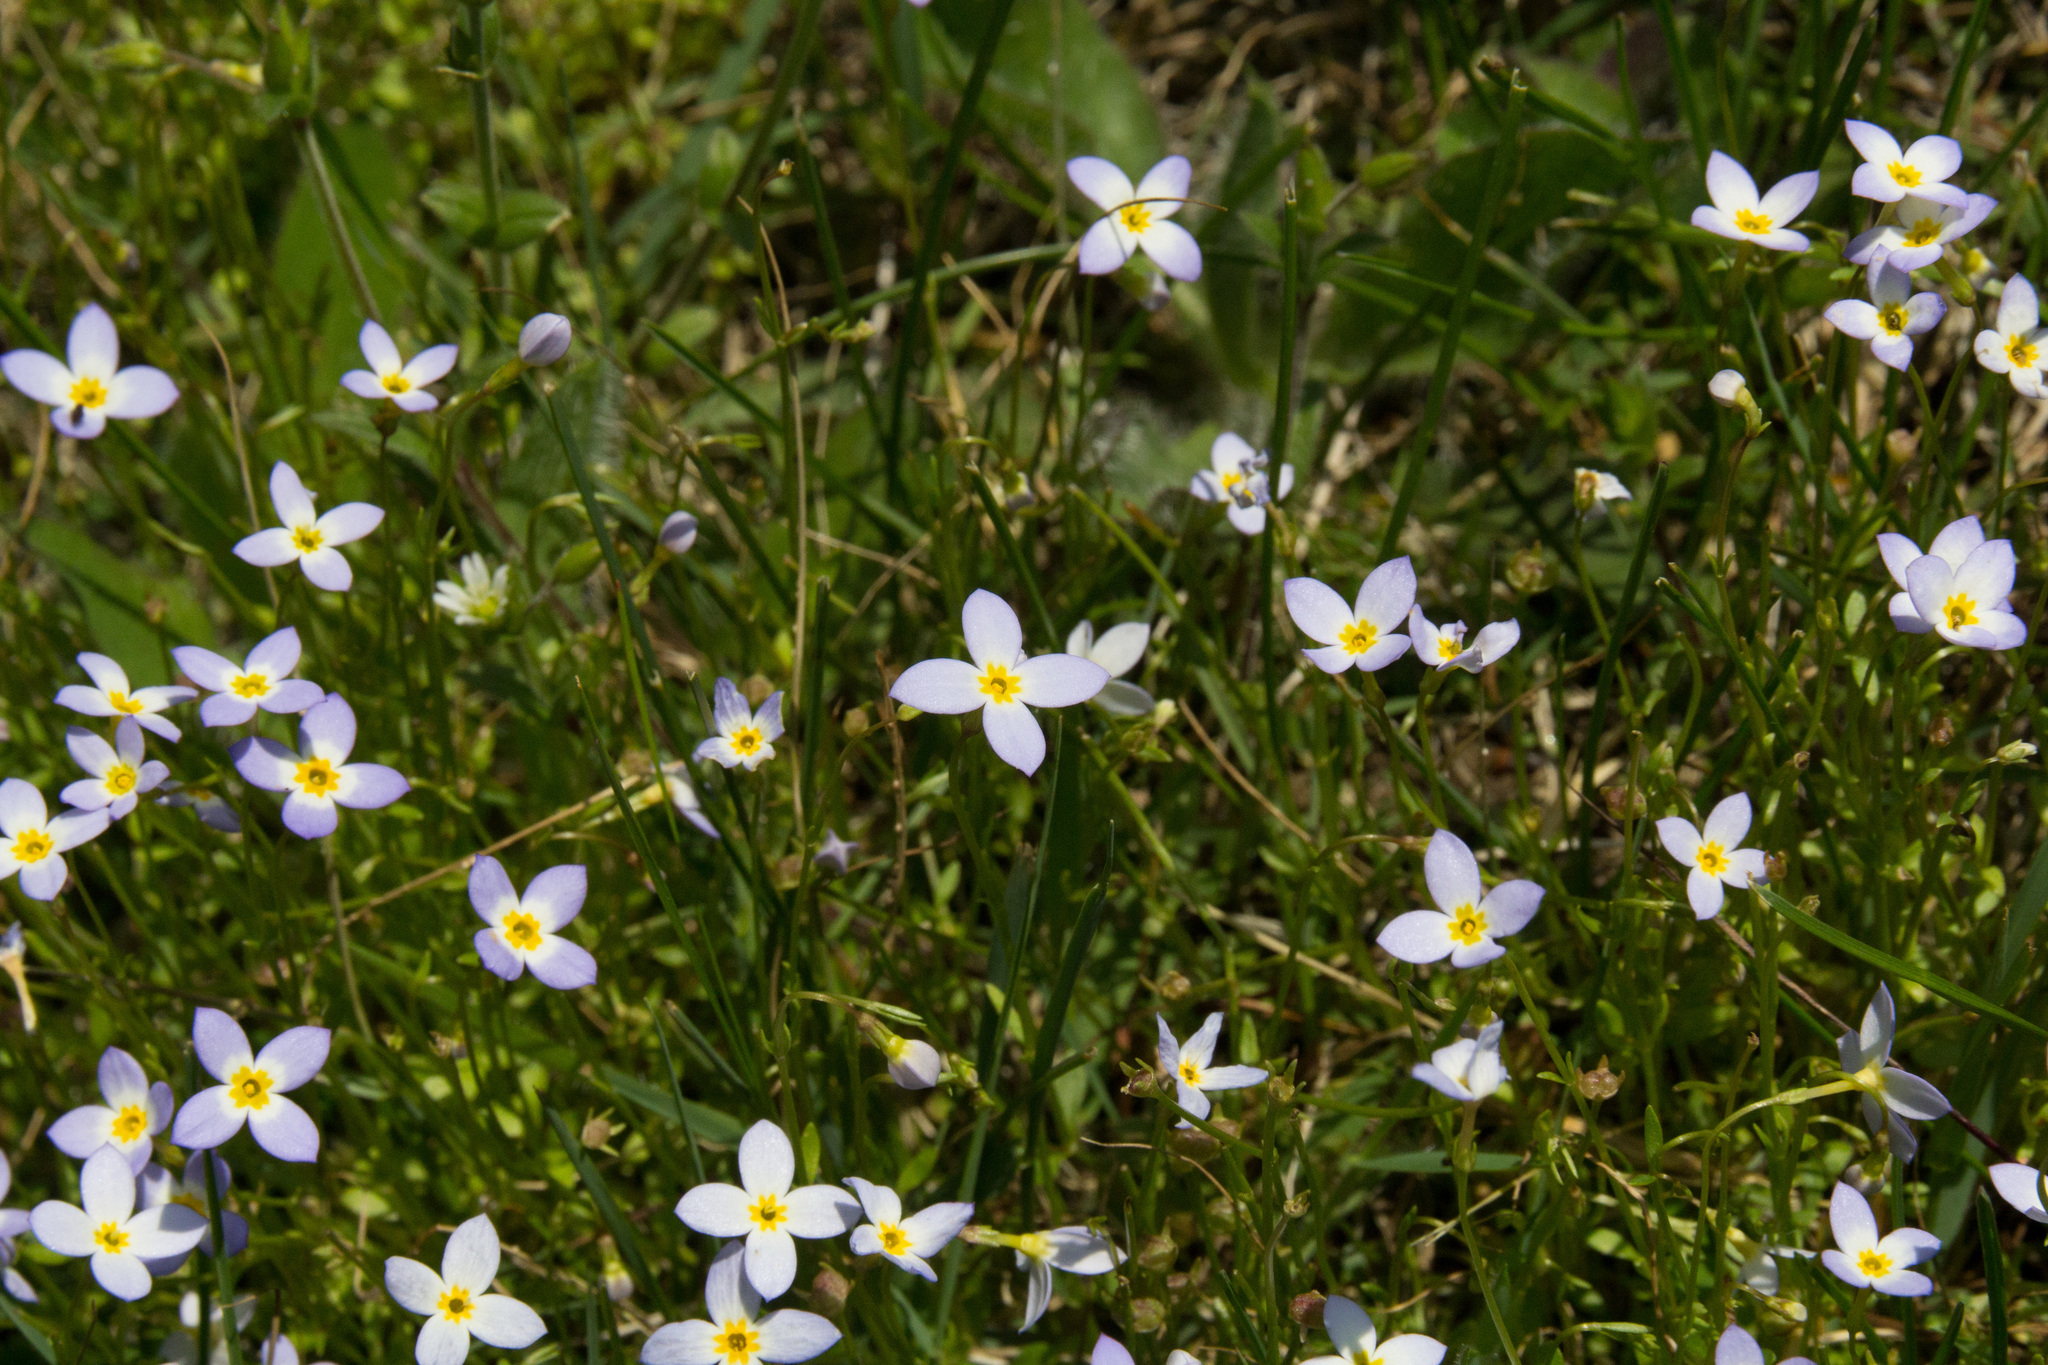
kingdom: Plantae
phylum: Tracheophyta
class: Magnoliopsida
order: Gentianales
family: Rubiaceae
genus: Houstonia
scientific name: Houstonia caerulea
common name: Bluets
